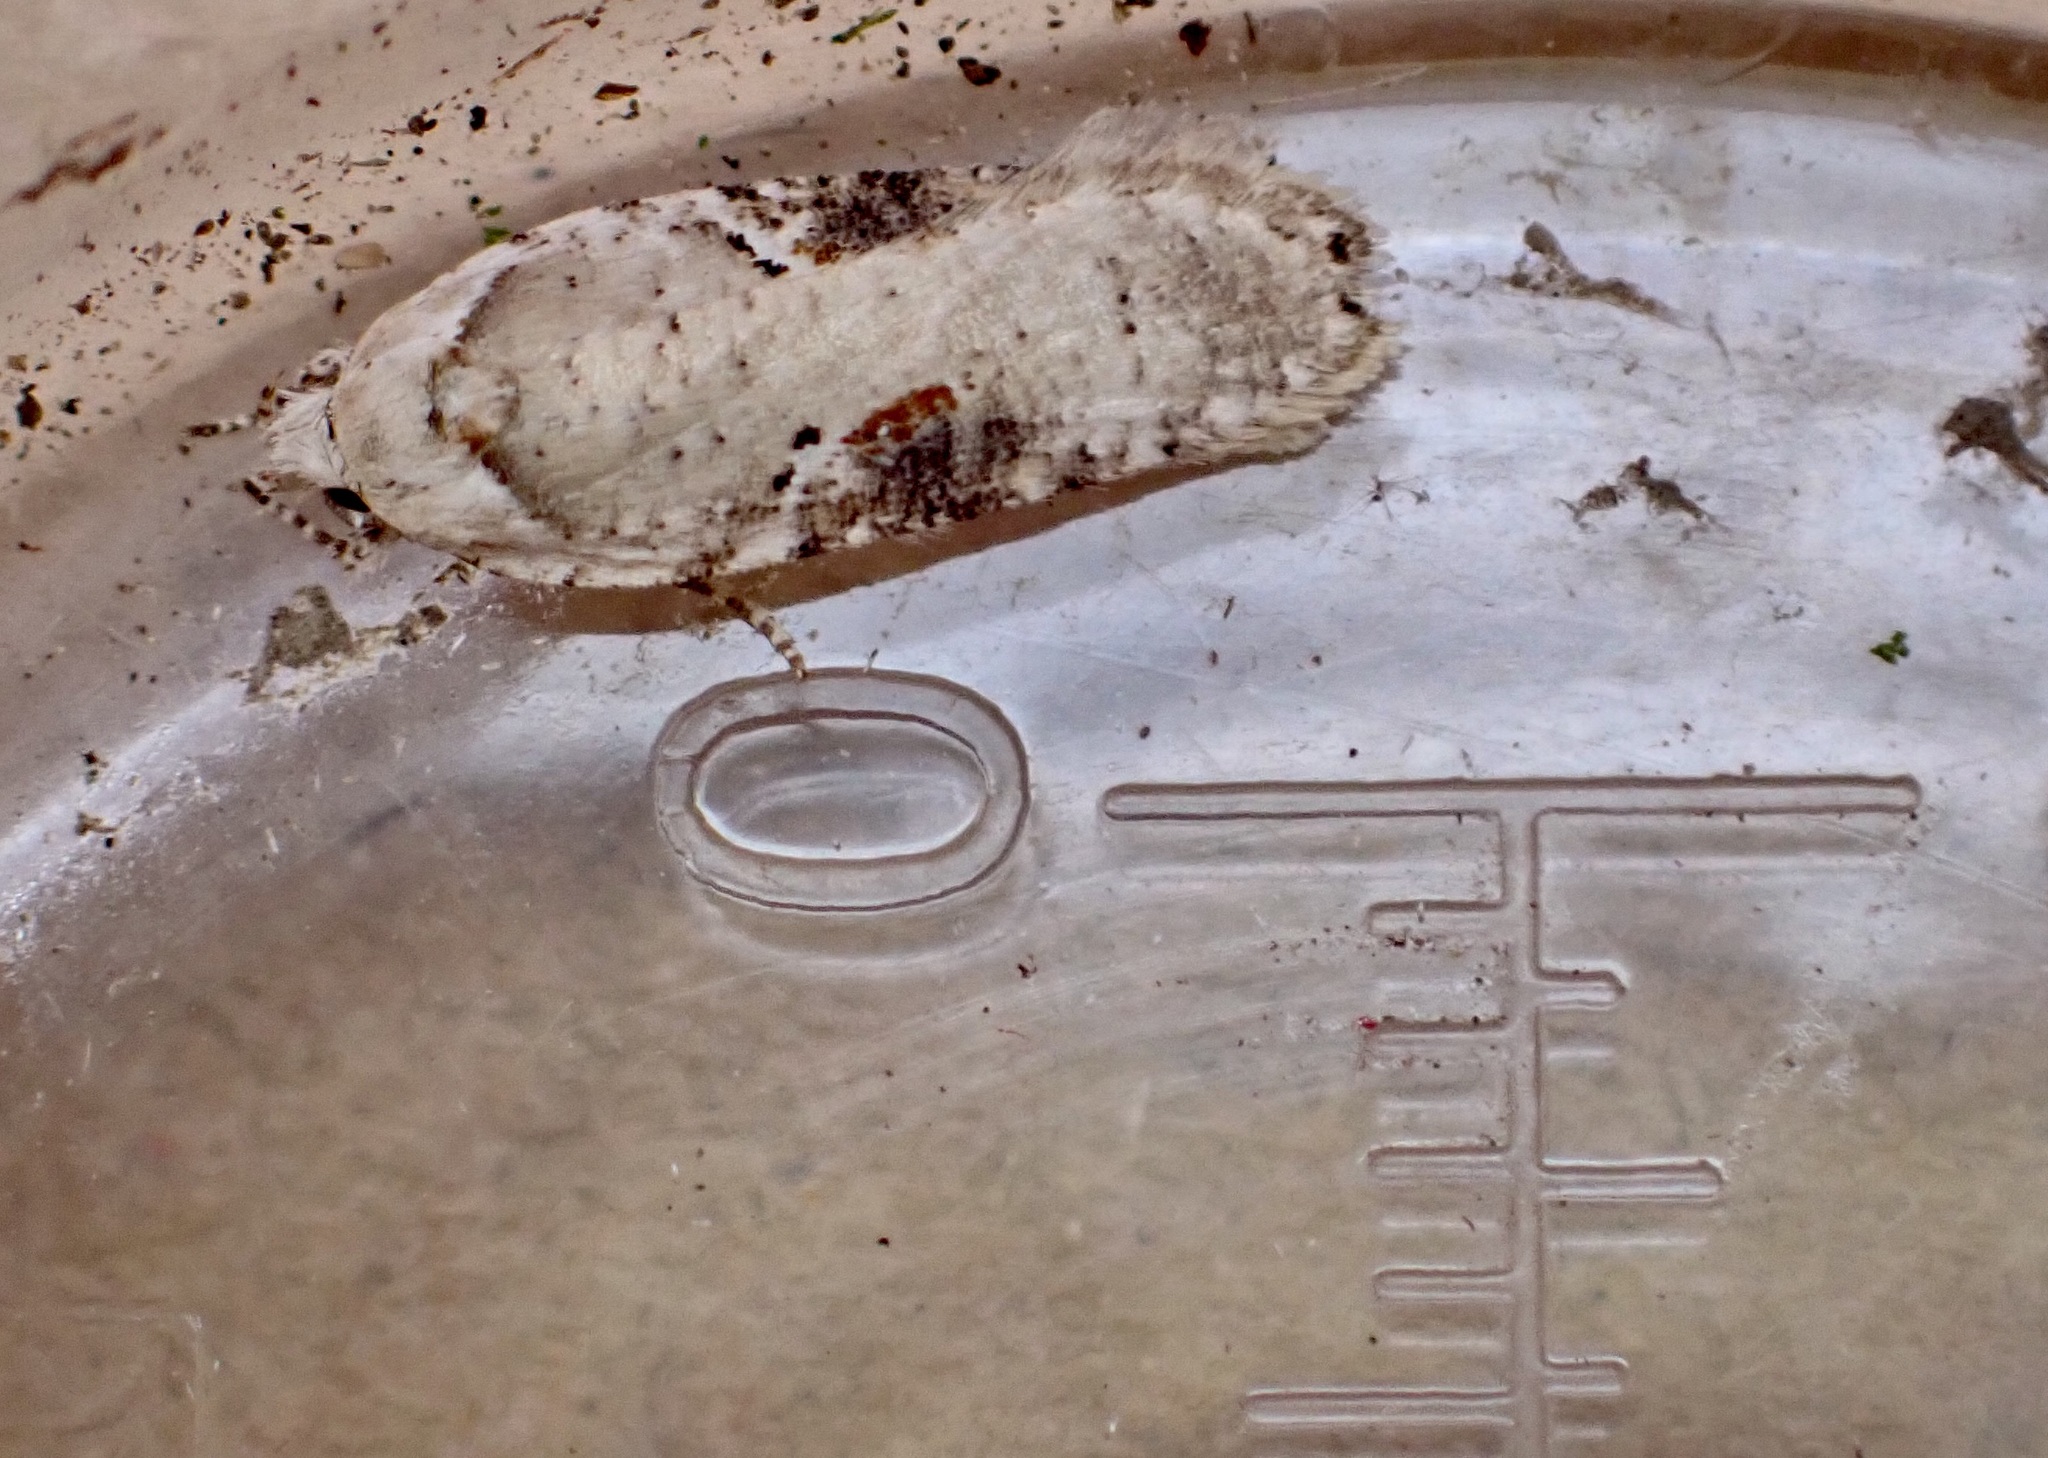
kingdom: Animalia
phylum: Arthropoda
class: Insecta
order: Lepidoptera
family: Depressariidae
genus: Agonopterix
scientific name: Agonopterix alstroemeriana
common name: Moth
